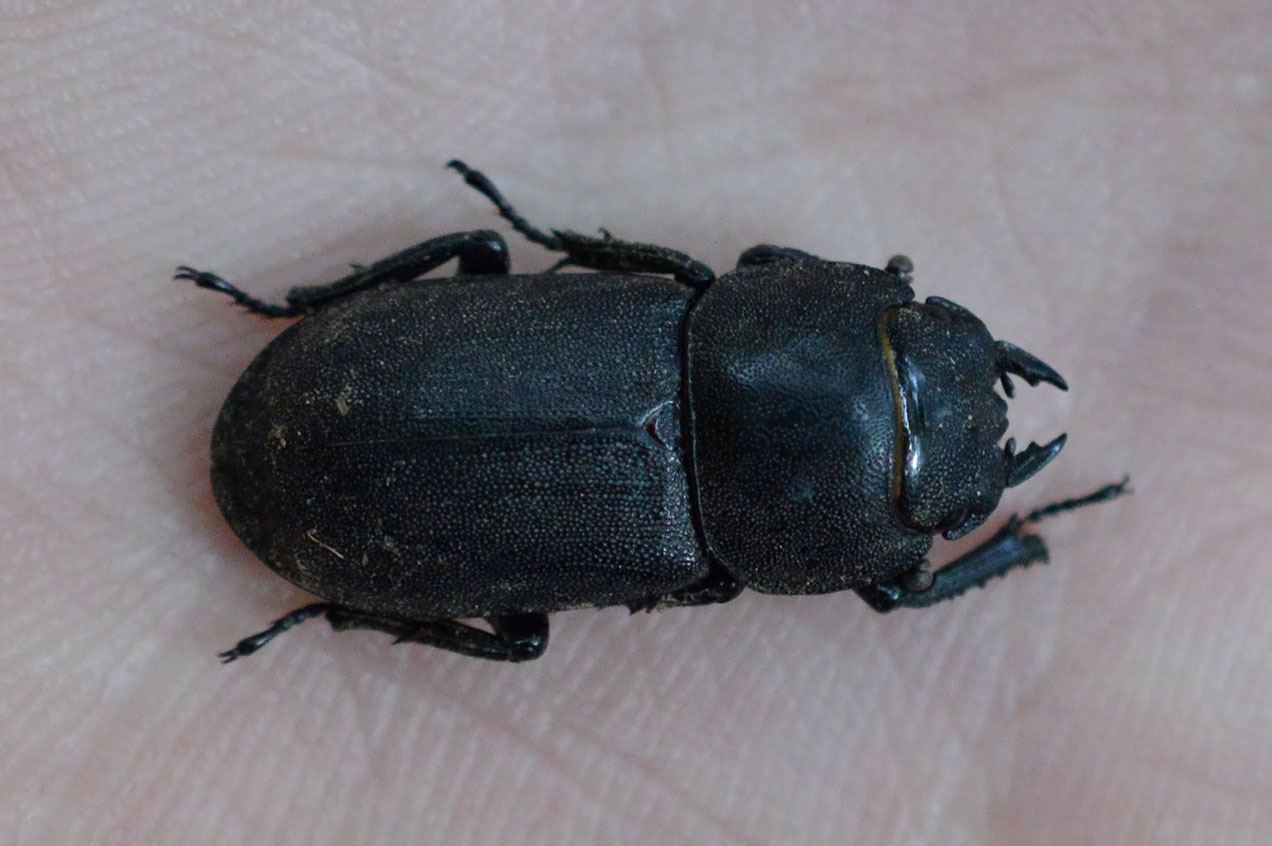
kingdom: Animalia
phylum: Arthropoda
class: Insecta
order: Coleoptera
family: Lucanidae
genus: Dorcus
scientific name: Dorcus parallelipipedus
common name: Lesser stag beetle
